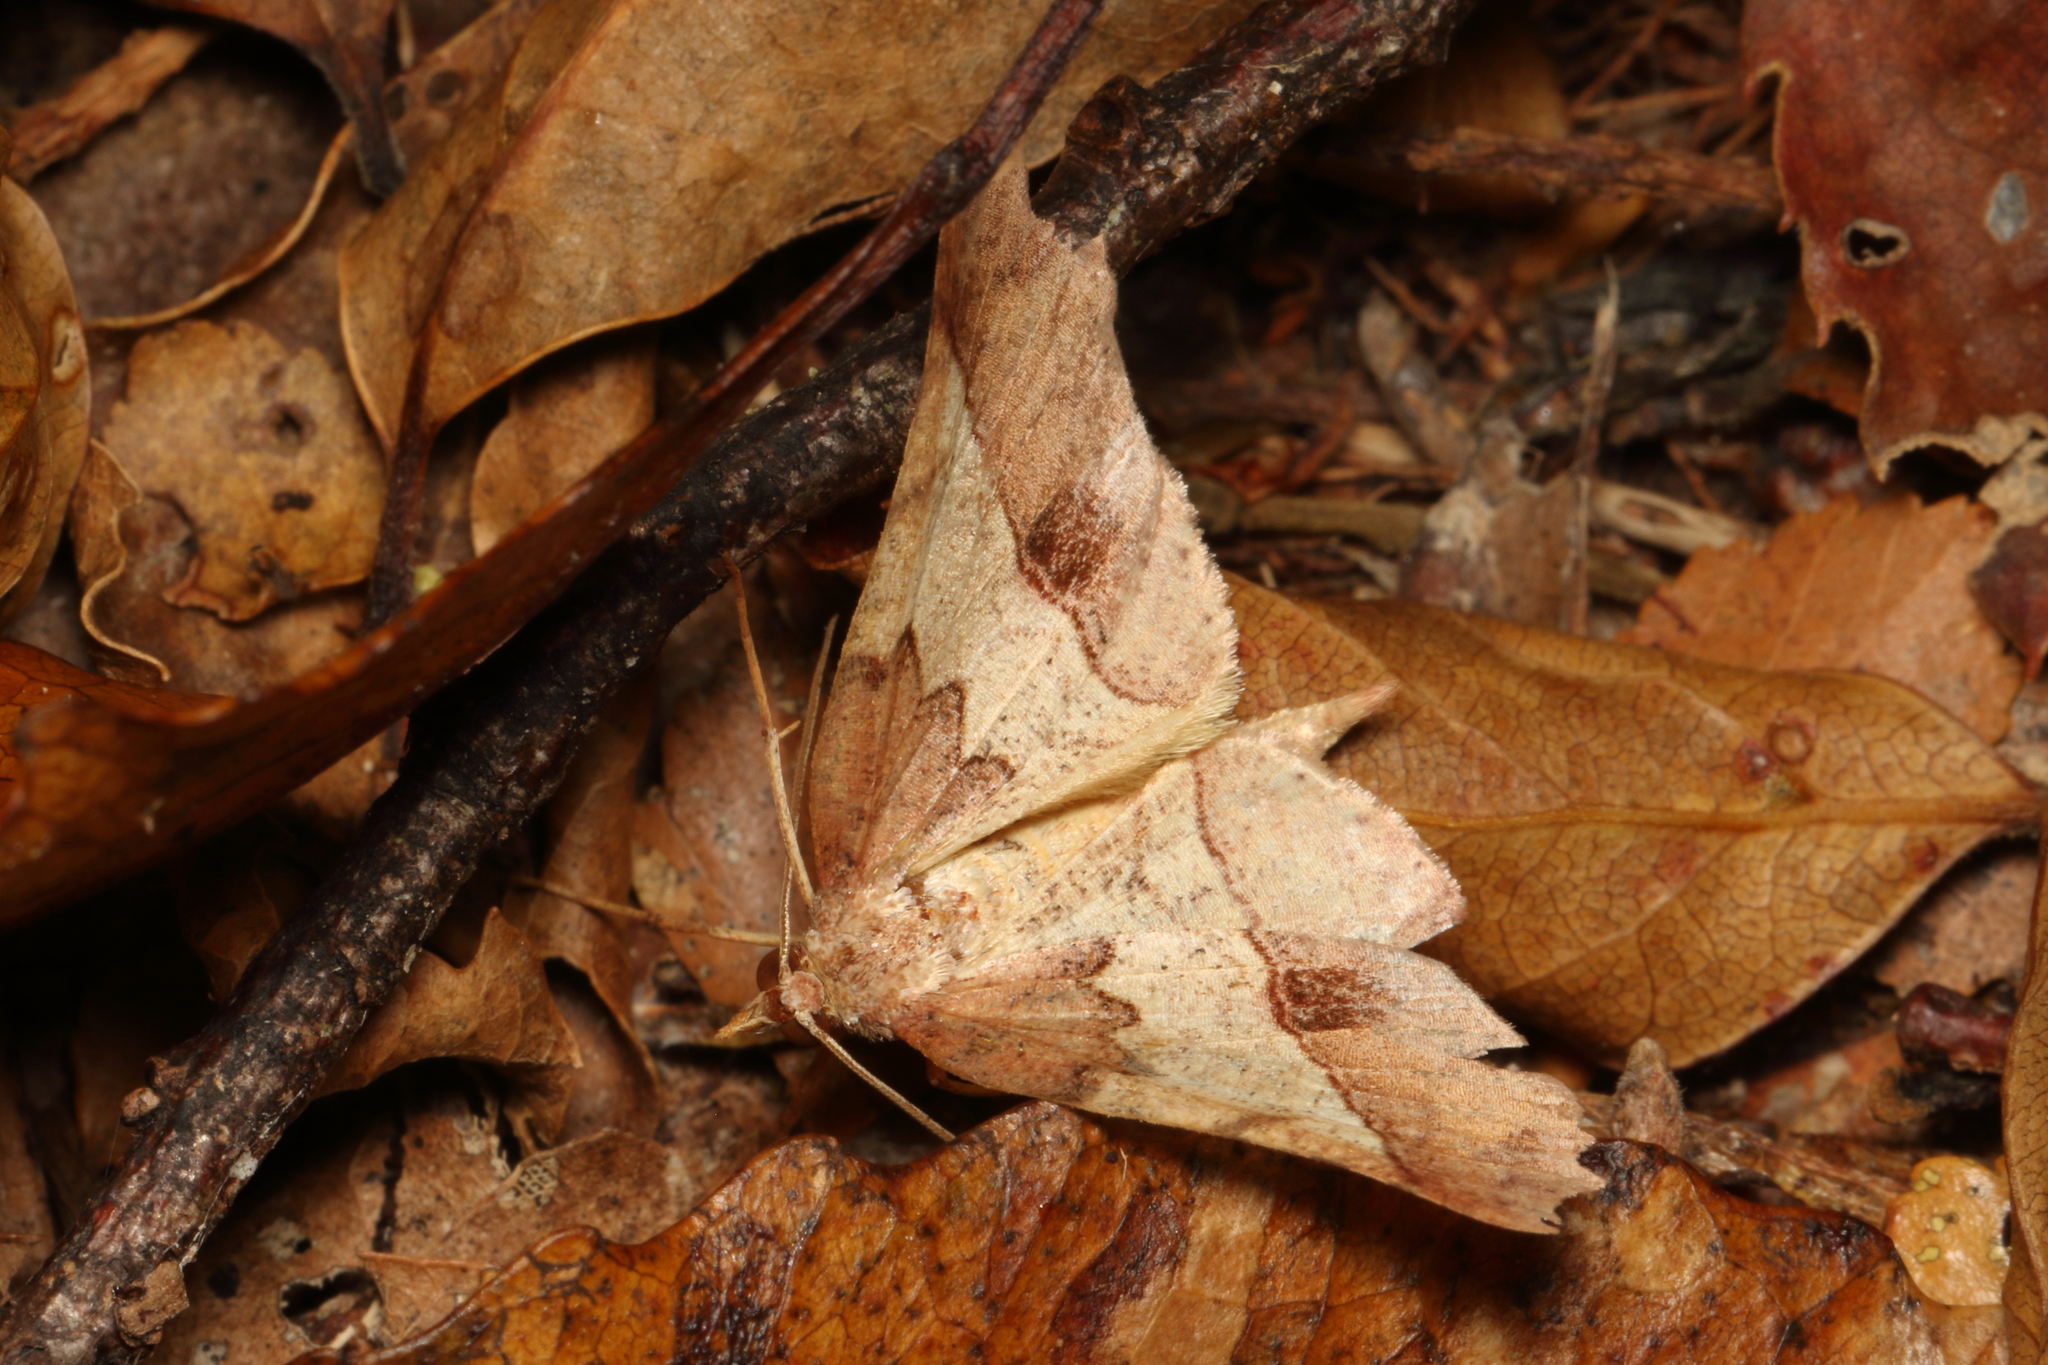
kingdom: Animalia
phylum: Arthropoda
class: Insecta
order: Lepidoptera
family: Geometridae
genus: Ischalis
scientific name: Ischalis gallaria
